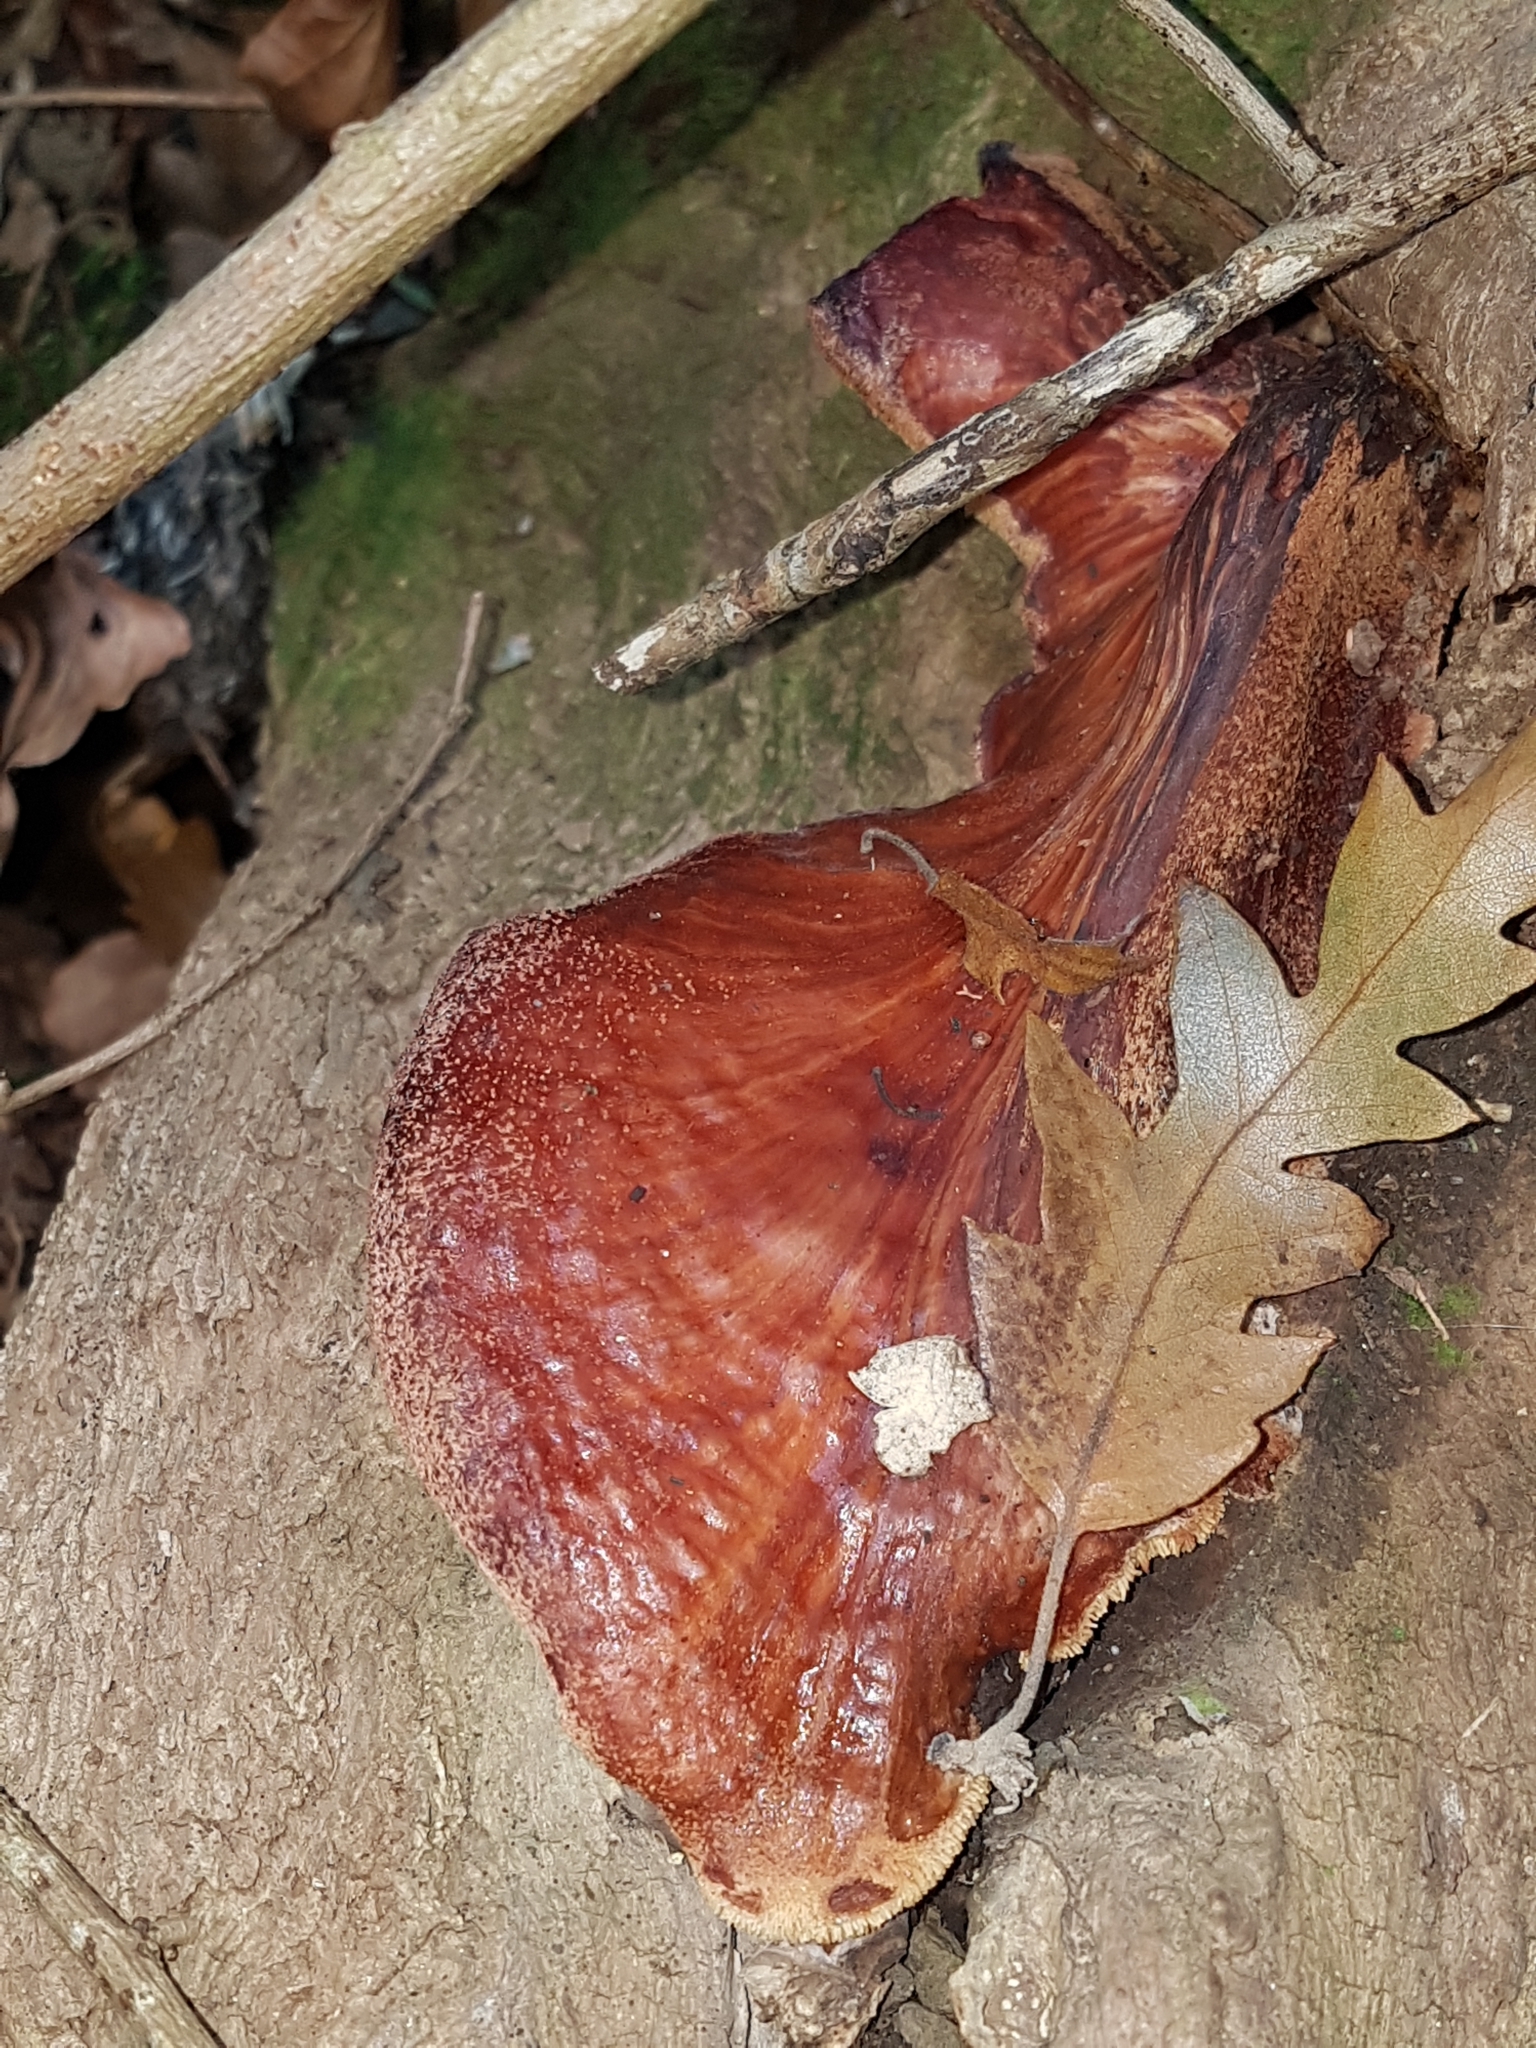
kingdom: Fungi
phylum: Basidiomycota
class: Agaricomycetes
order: Agaricales
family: Fistulinaceae
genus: Fistulina
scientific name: Fistulina hepatica
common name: Beef-steak fungus
